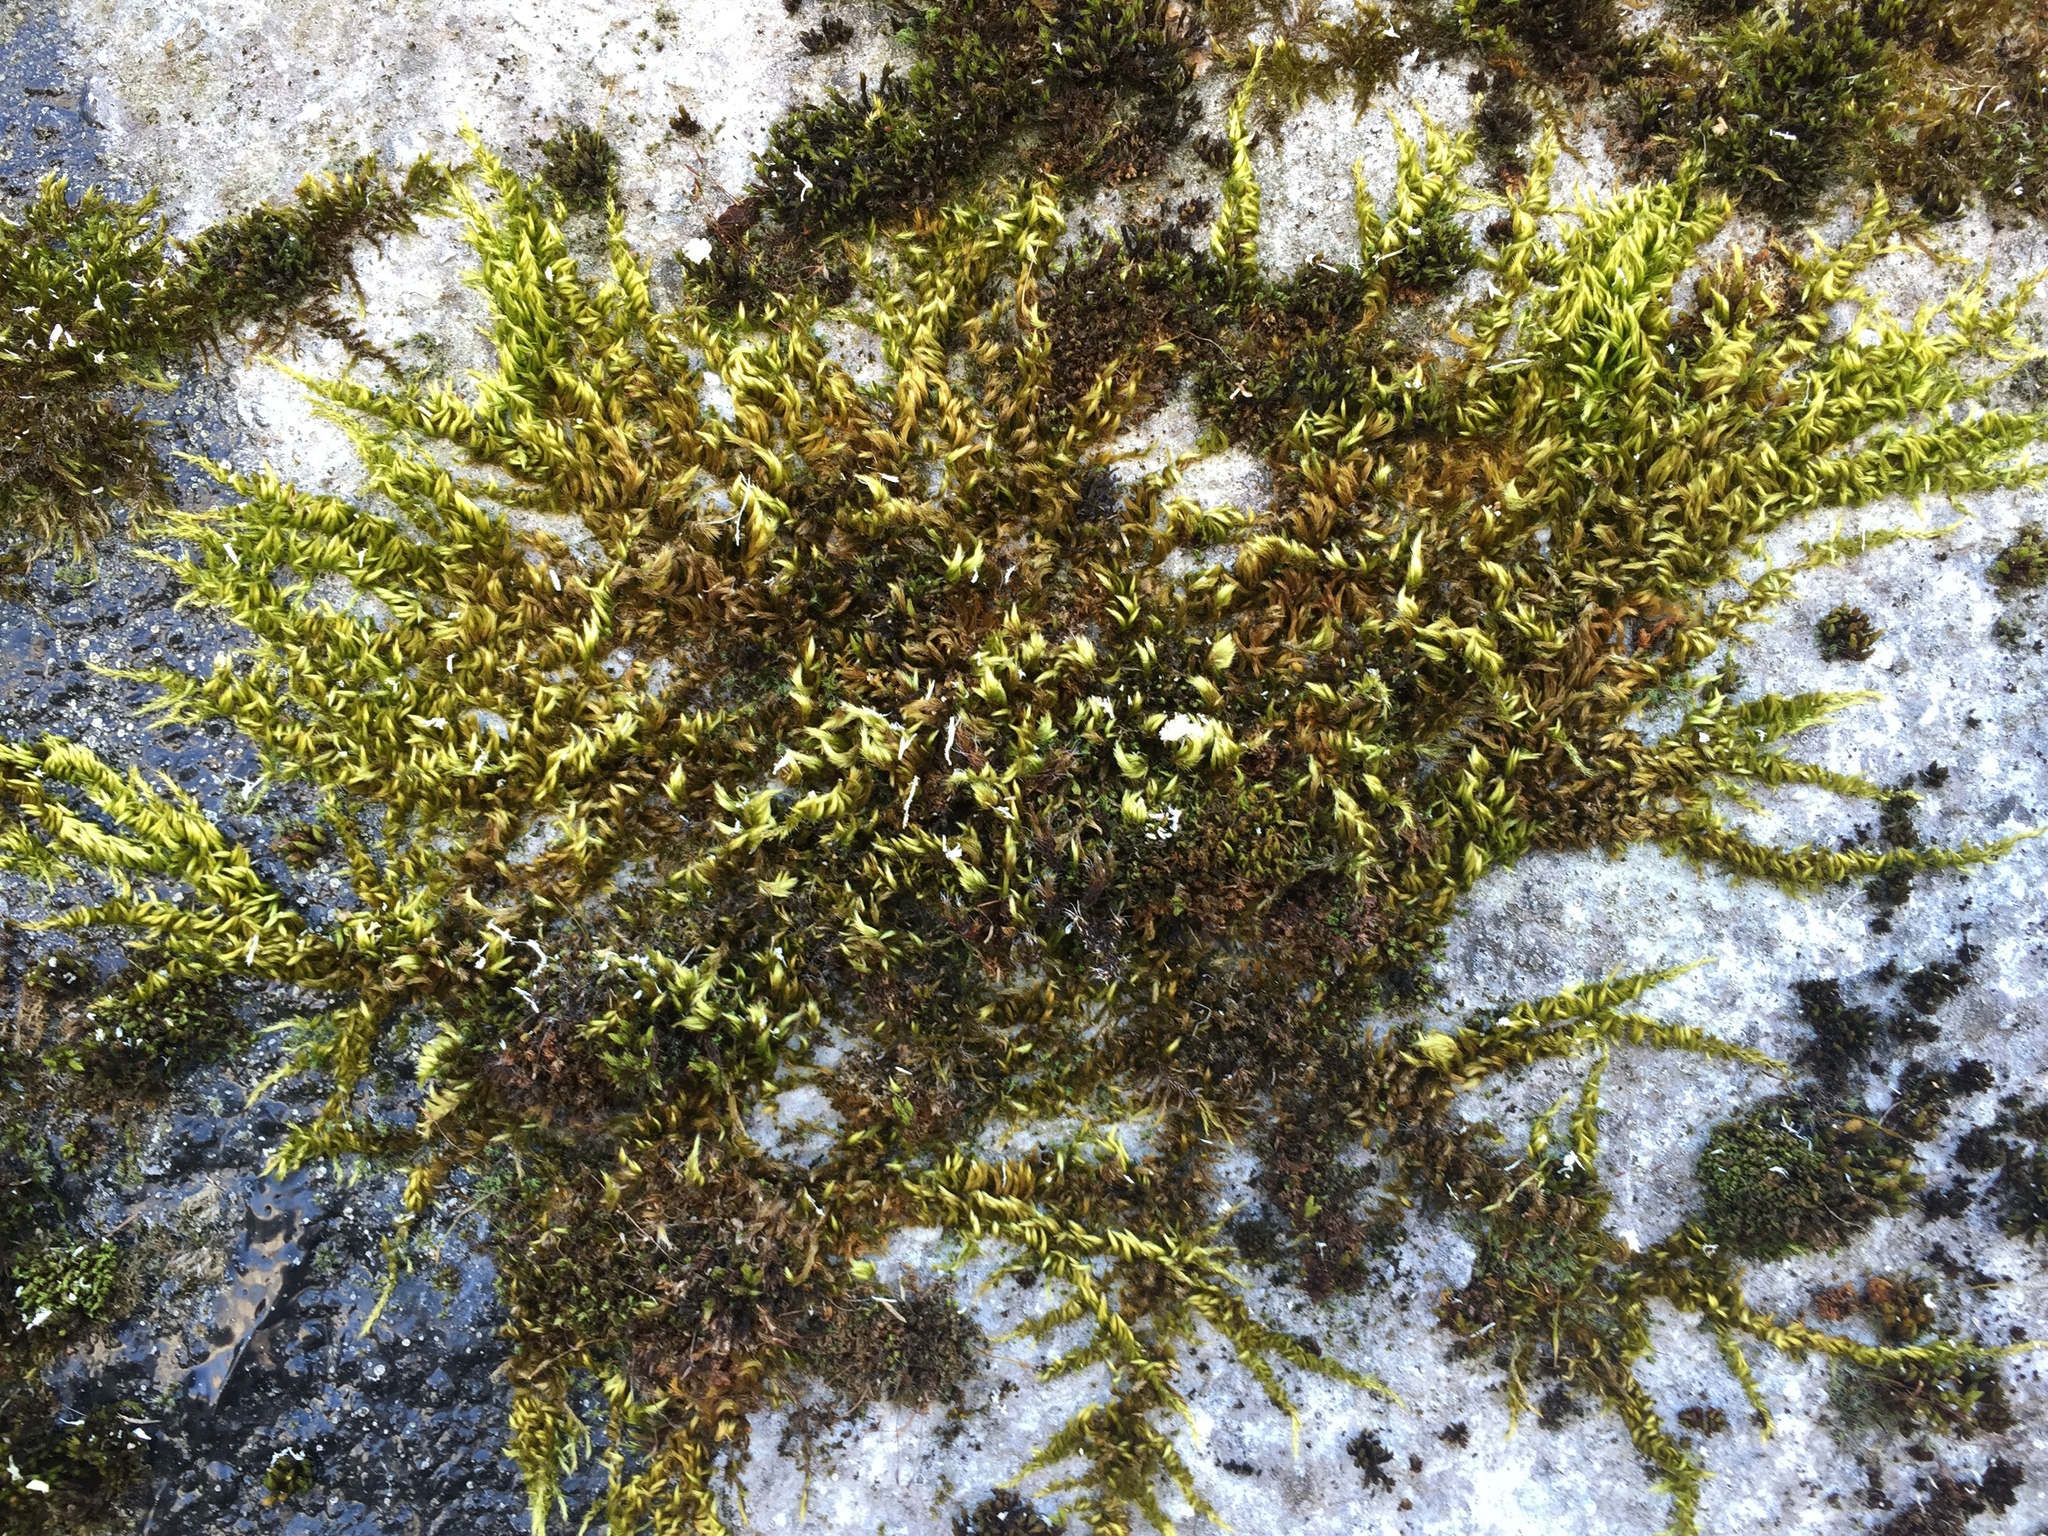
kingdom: Plantae
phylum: Bryophyta
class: Bryopsida
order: Hypnales
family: Brachytheciaceae
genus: Homalothecium
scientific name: Homalothecium sericeum
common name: Silky wall feather-moss
